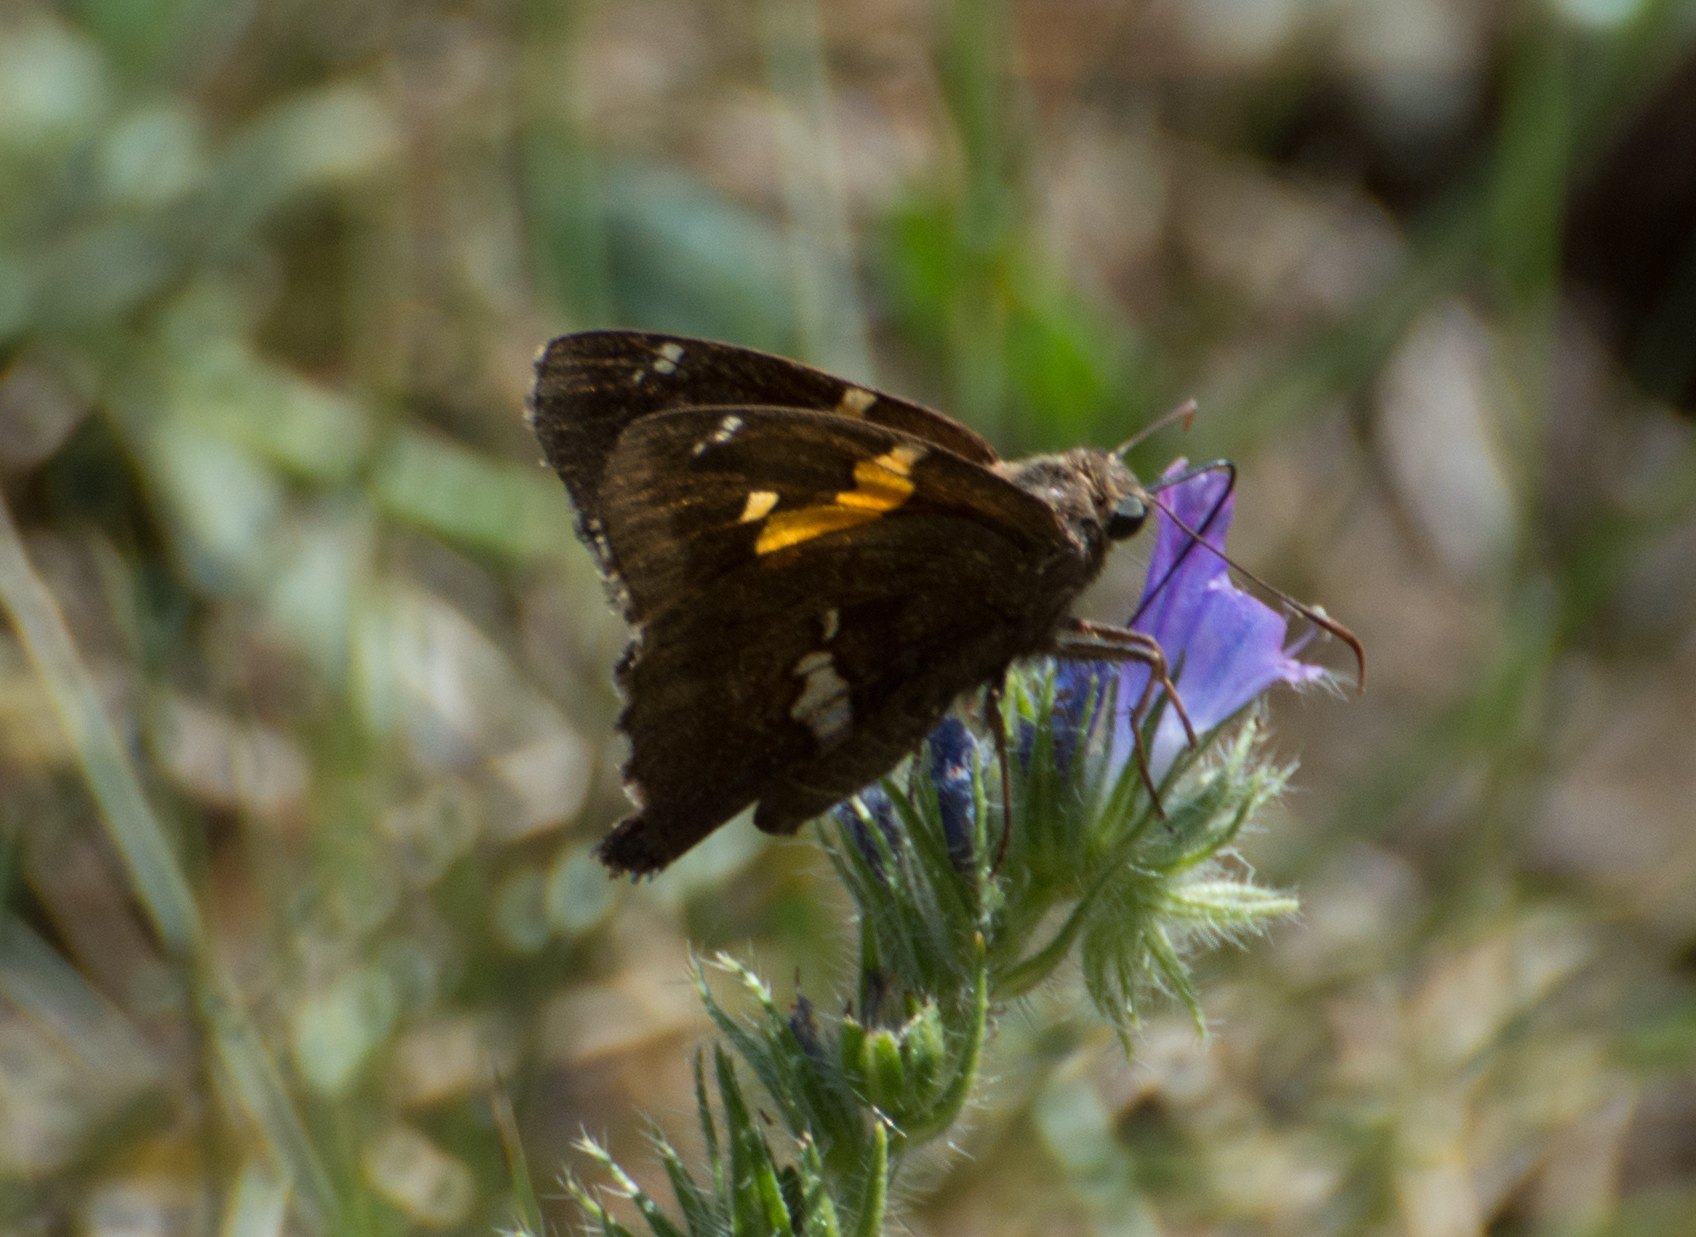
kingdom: Animalia
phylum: Arthropoda
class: Insecta
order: Lepidoptera
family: Hesperiidae
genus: Epargyreus
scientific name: Epargyreus tmolis
